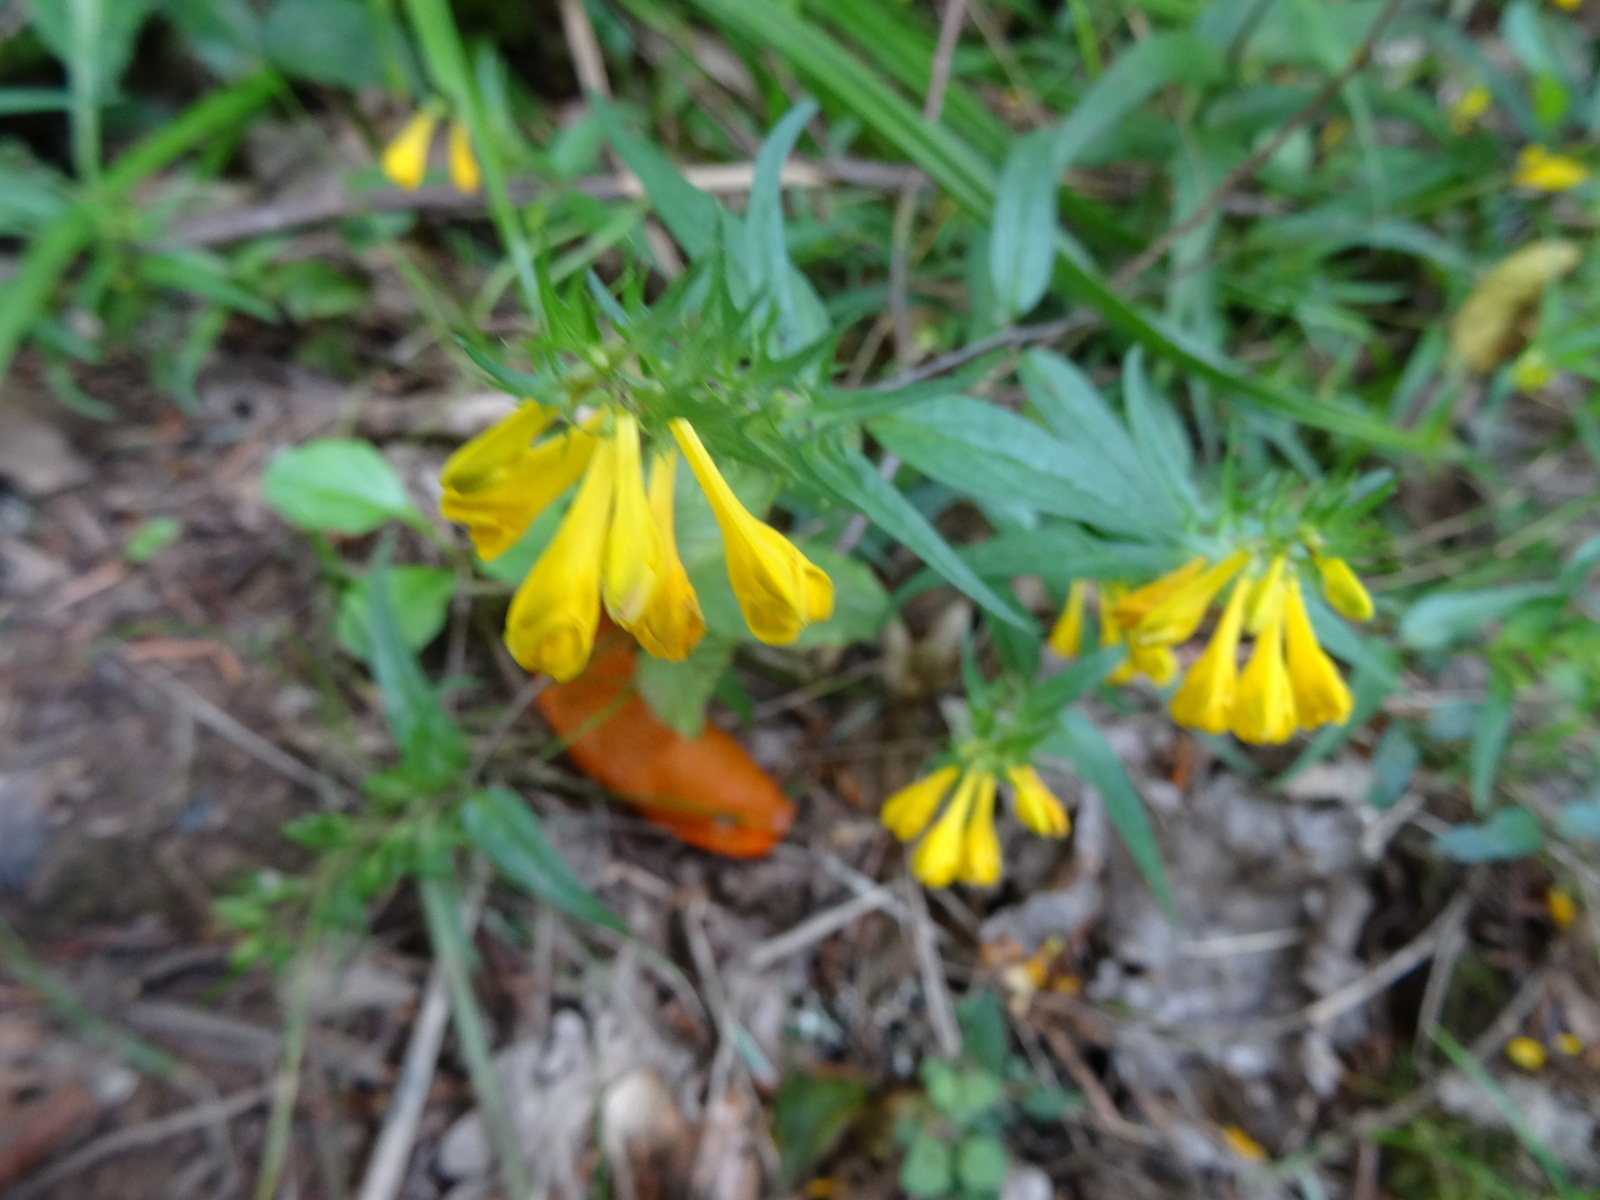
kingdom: Plantae
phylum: Tracheophyta
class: Magnoliopsida
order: Lamiales
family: Orobanchaceae
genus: Melampyrum
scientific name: Melampyrum pratense
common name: Common cow-wheat
